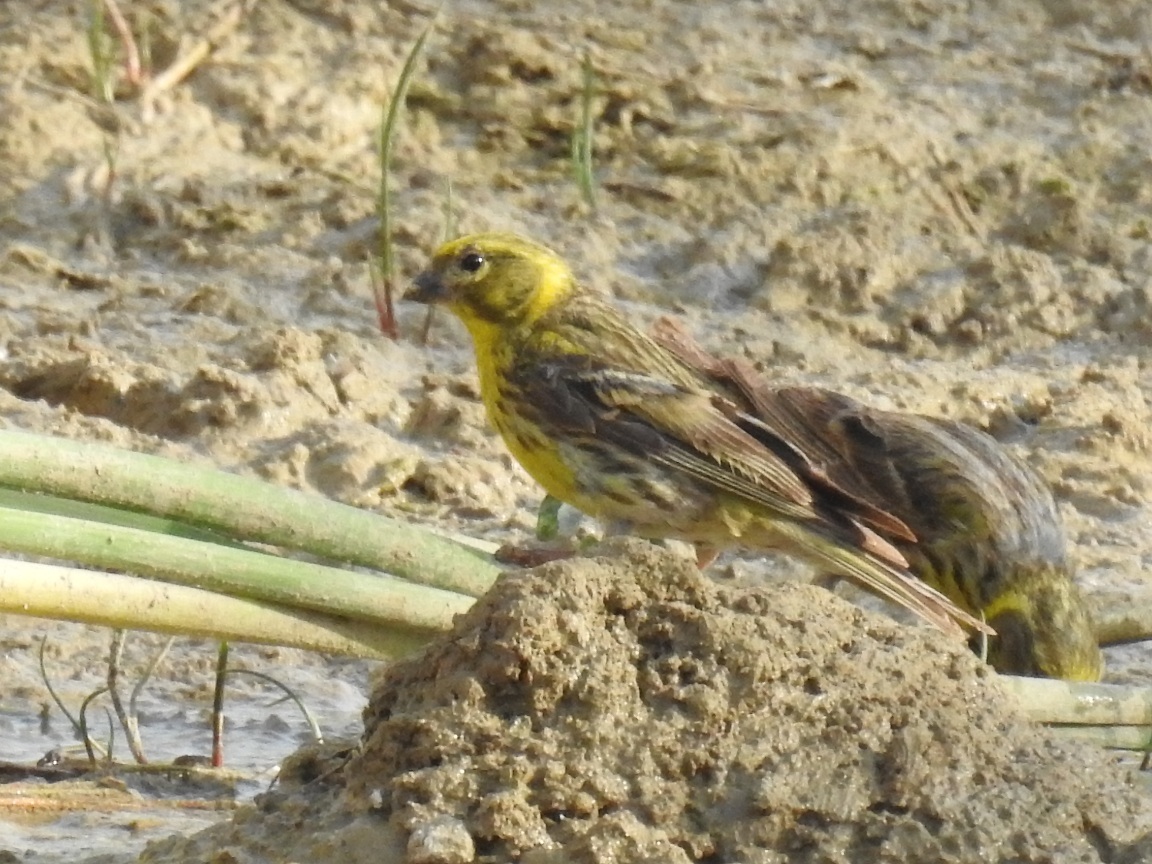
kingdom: Animalia
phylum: Chordata
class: Aves
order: Passeriformes
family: Fringillidae
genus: Serinus
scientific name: Serinus serinus
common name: European serin
